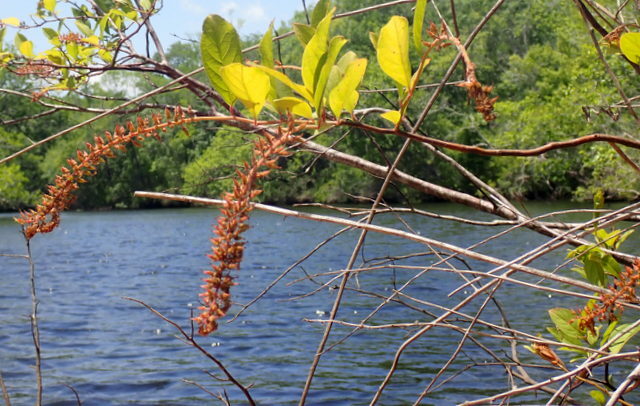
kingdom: Plantae
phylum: Tracheophyta
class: Magnoliopsida
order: Saxifragales
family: Iteaceae
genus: Itea
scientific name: Itea virginica
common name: Sweetspire
